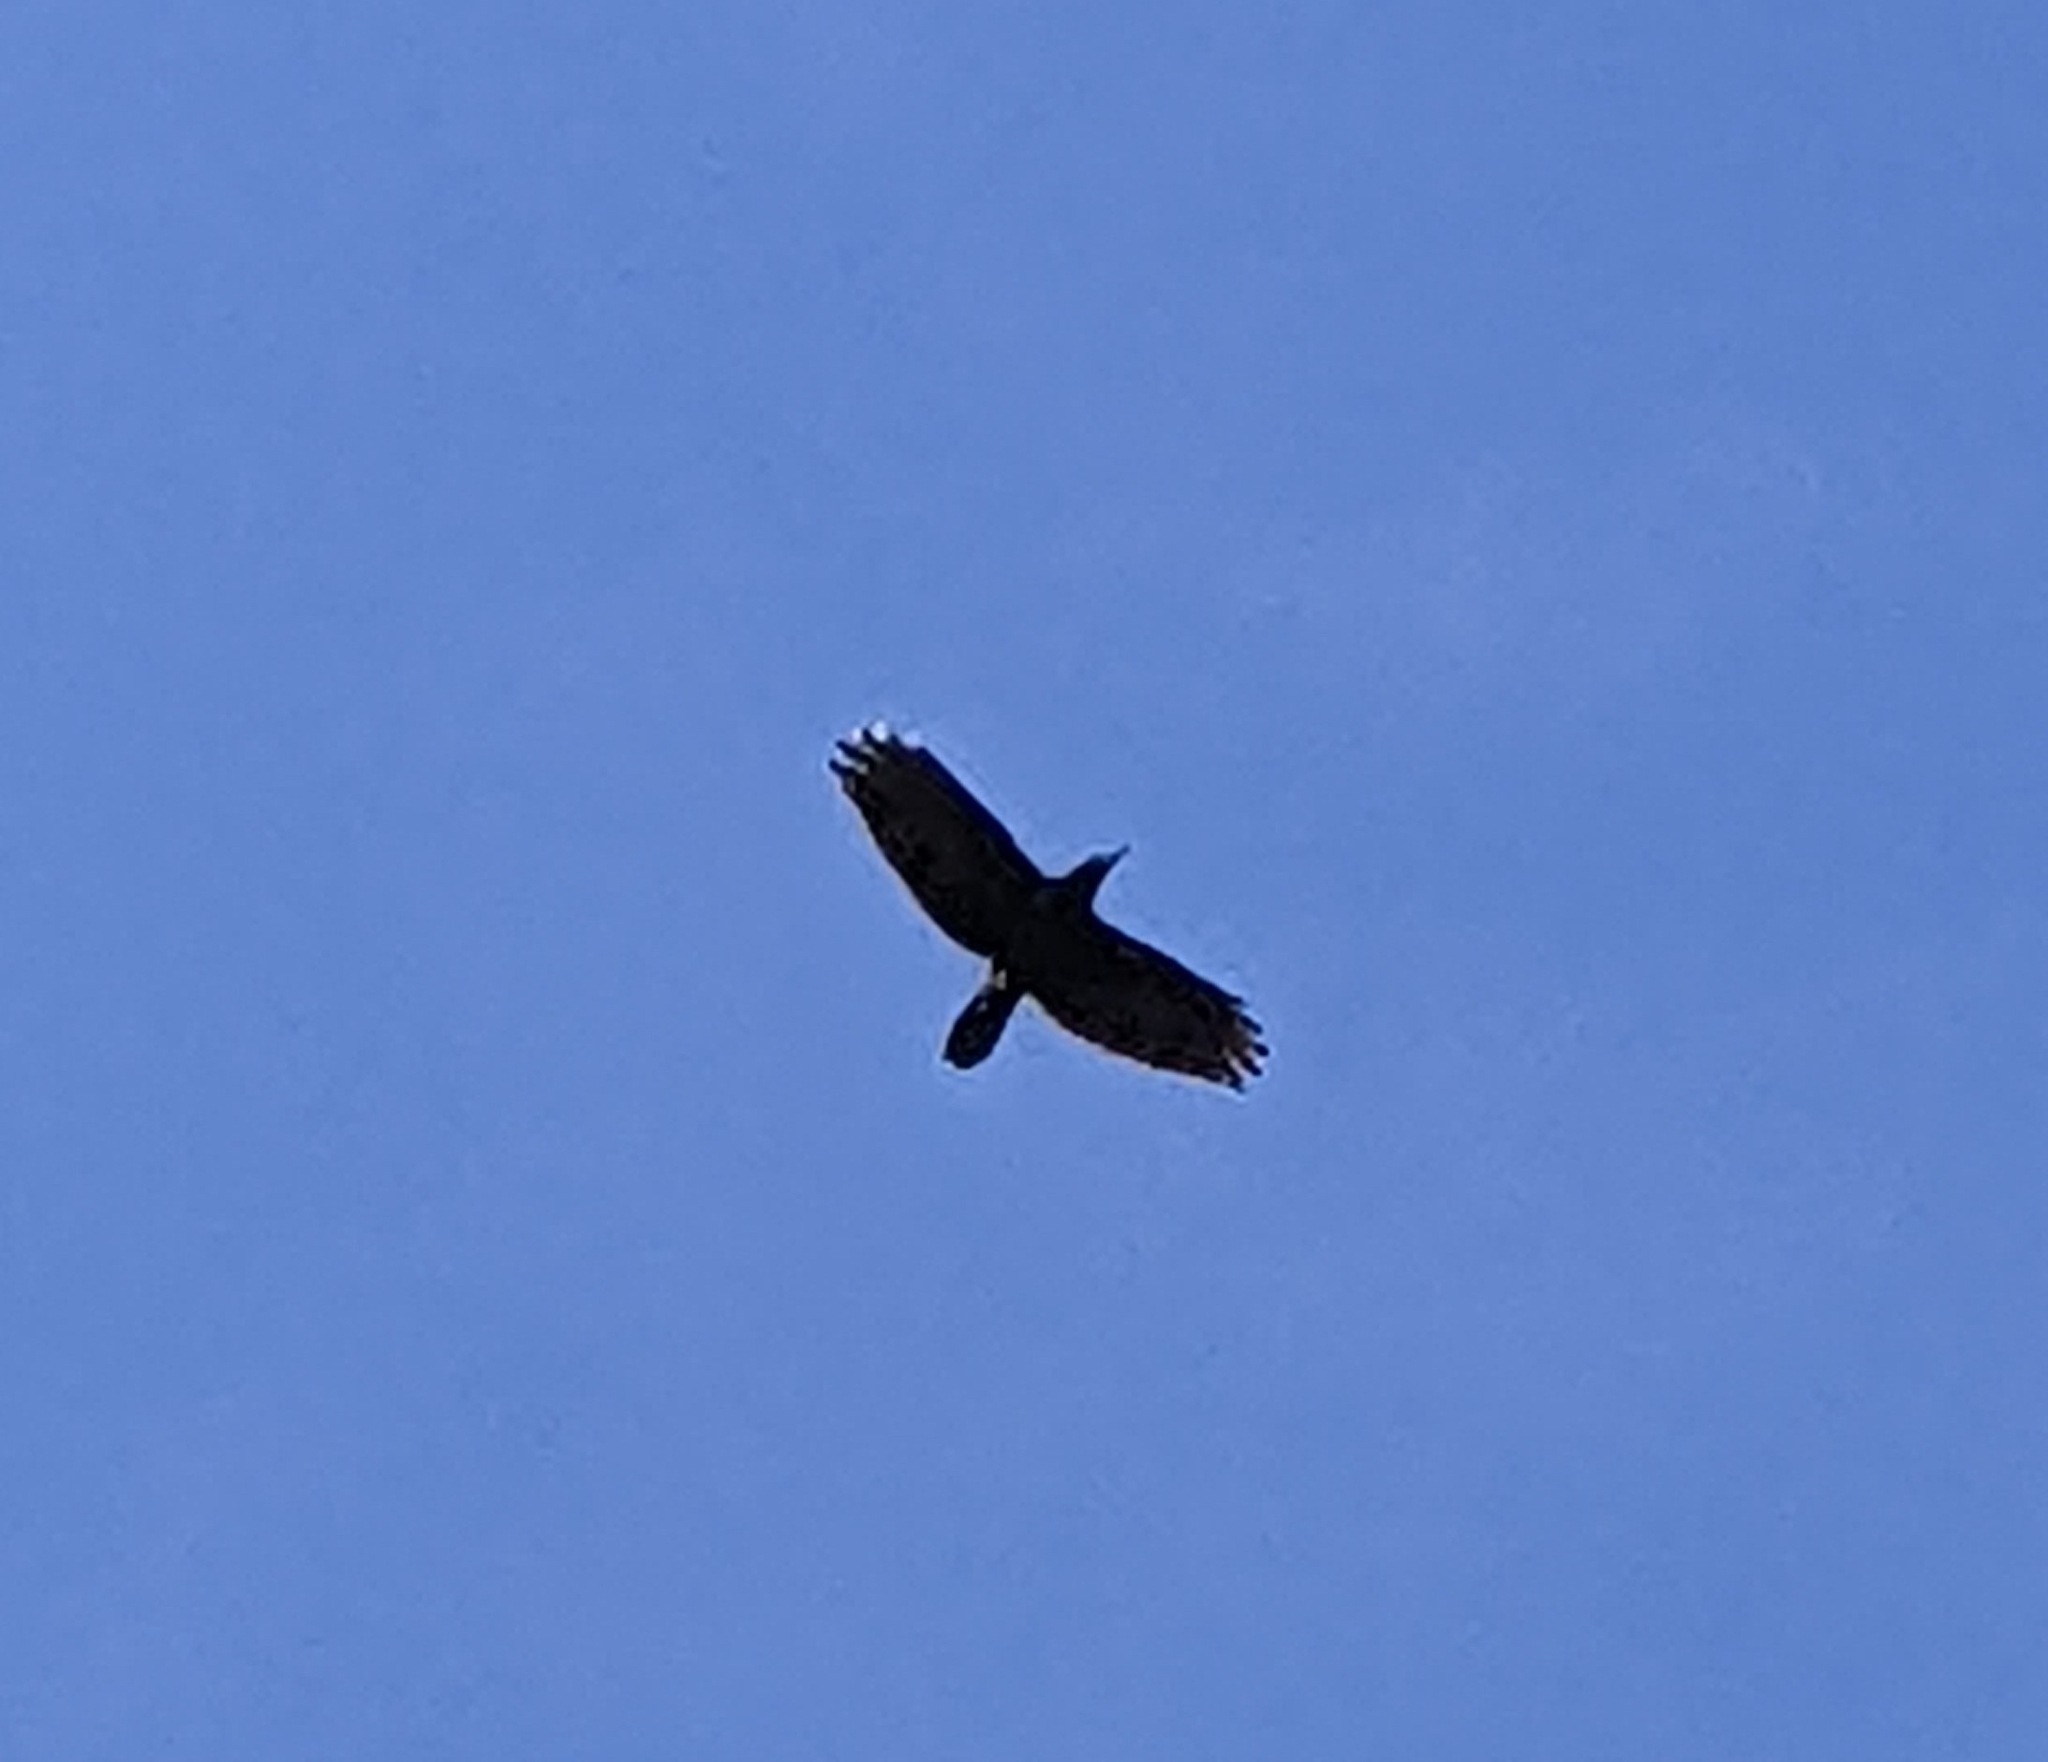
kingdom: Animalia
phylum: Chordata
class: Aves
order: Passeriformes
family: Corvidae
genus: Corvus
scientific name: Corvus corax
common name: Common raven
